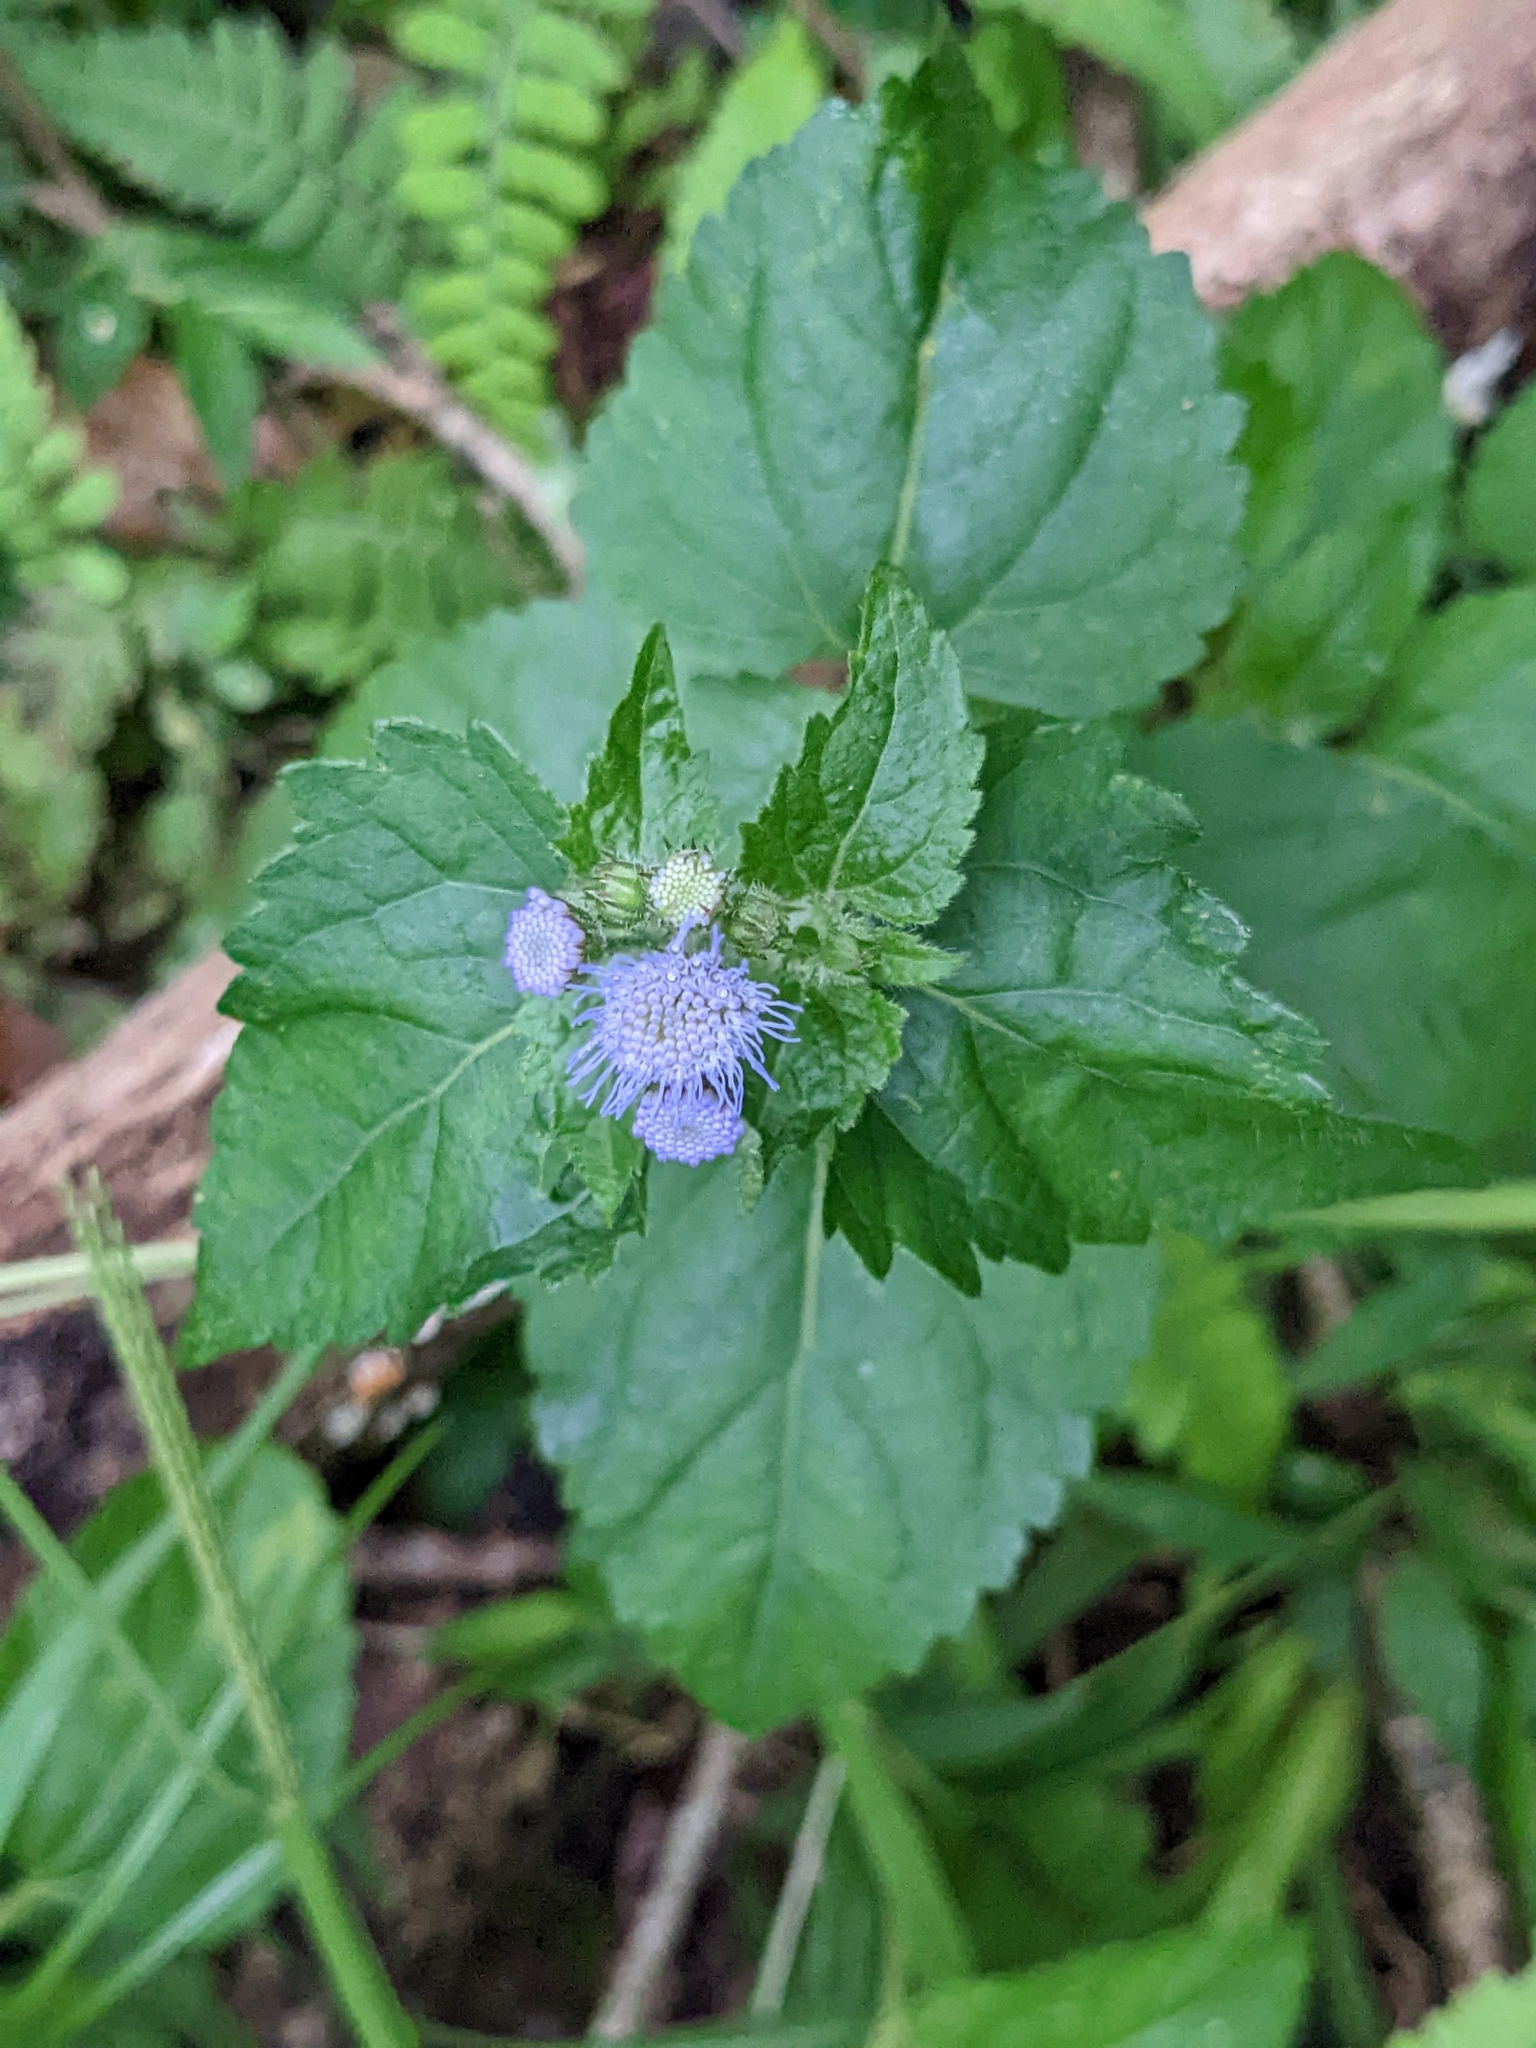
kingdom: Plantae
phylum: Tracheophyta
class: Magnoliopsida
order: Asterales
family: Asteraceae
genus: Ageratum
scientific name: Ageratum houstonianum
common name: Bluemink
